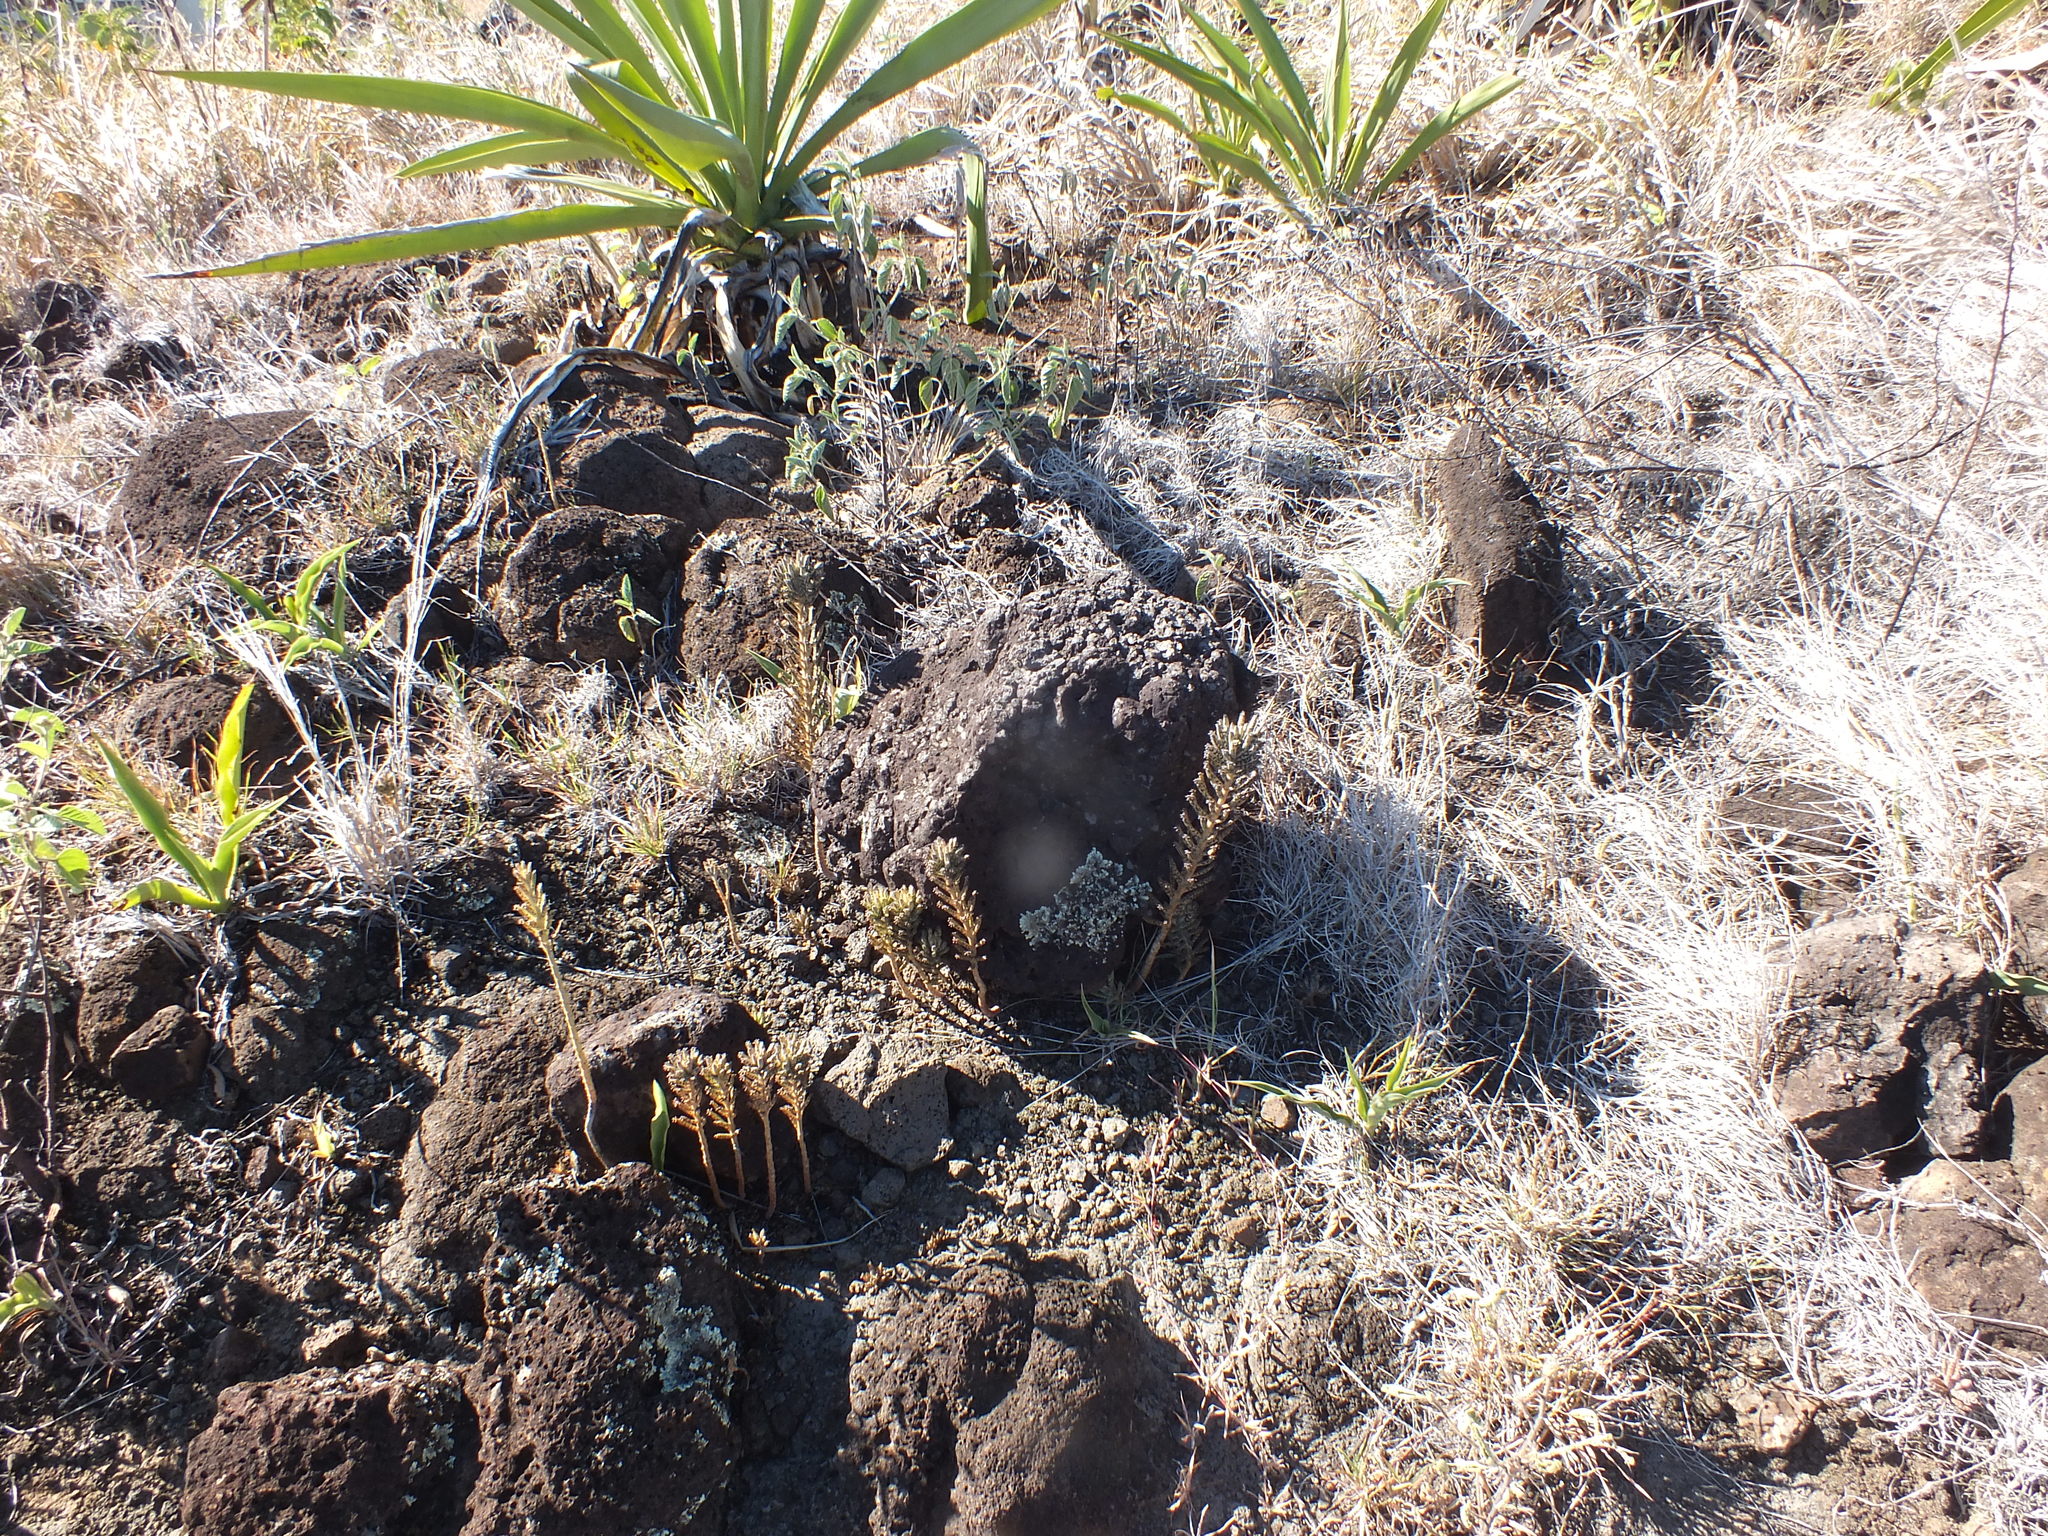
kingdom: Plantae
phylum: Tracheophyta
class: Magnoliopsida
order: Saxifragales
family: Crassulaceae
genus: Kalanchoe
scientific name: Kalanchoe delagoensis
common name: Chandelier plant
